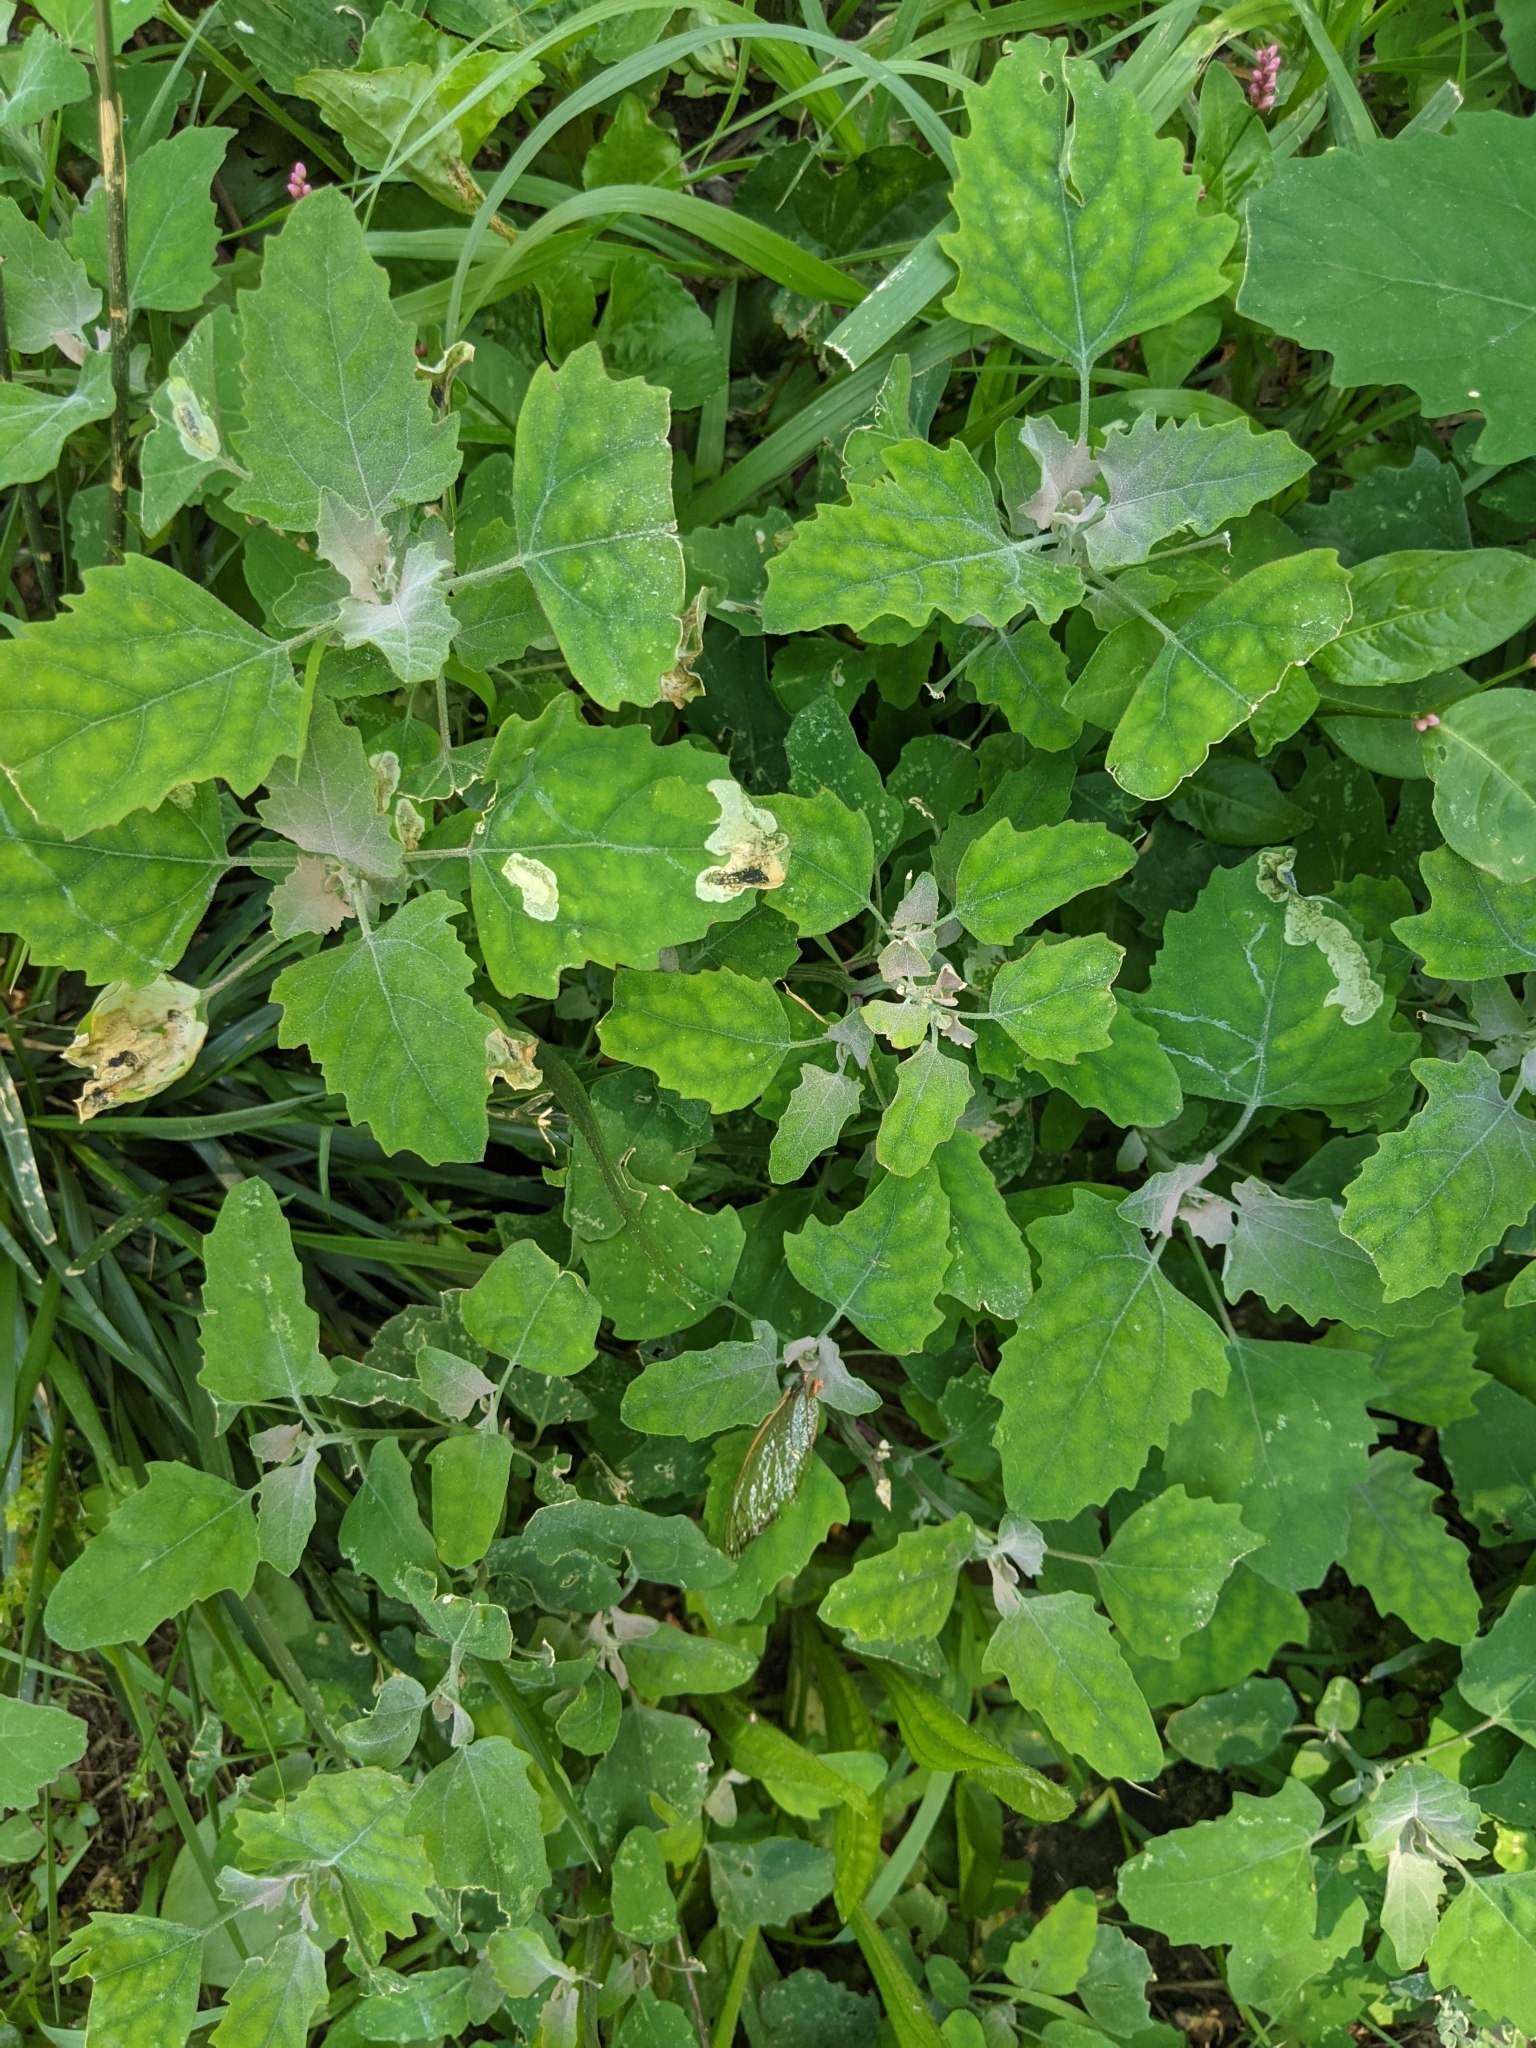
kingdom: Plantae
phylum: Tracheophyta
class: Magnoliopsida
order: Caryophyllales
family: Amaranthaceae
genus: Chenopodium
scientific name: Chenopodium album
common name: Fat-hen
